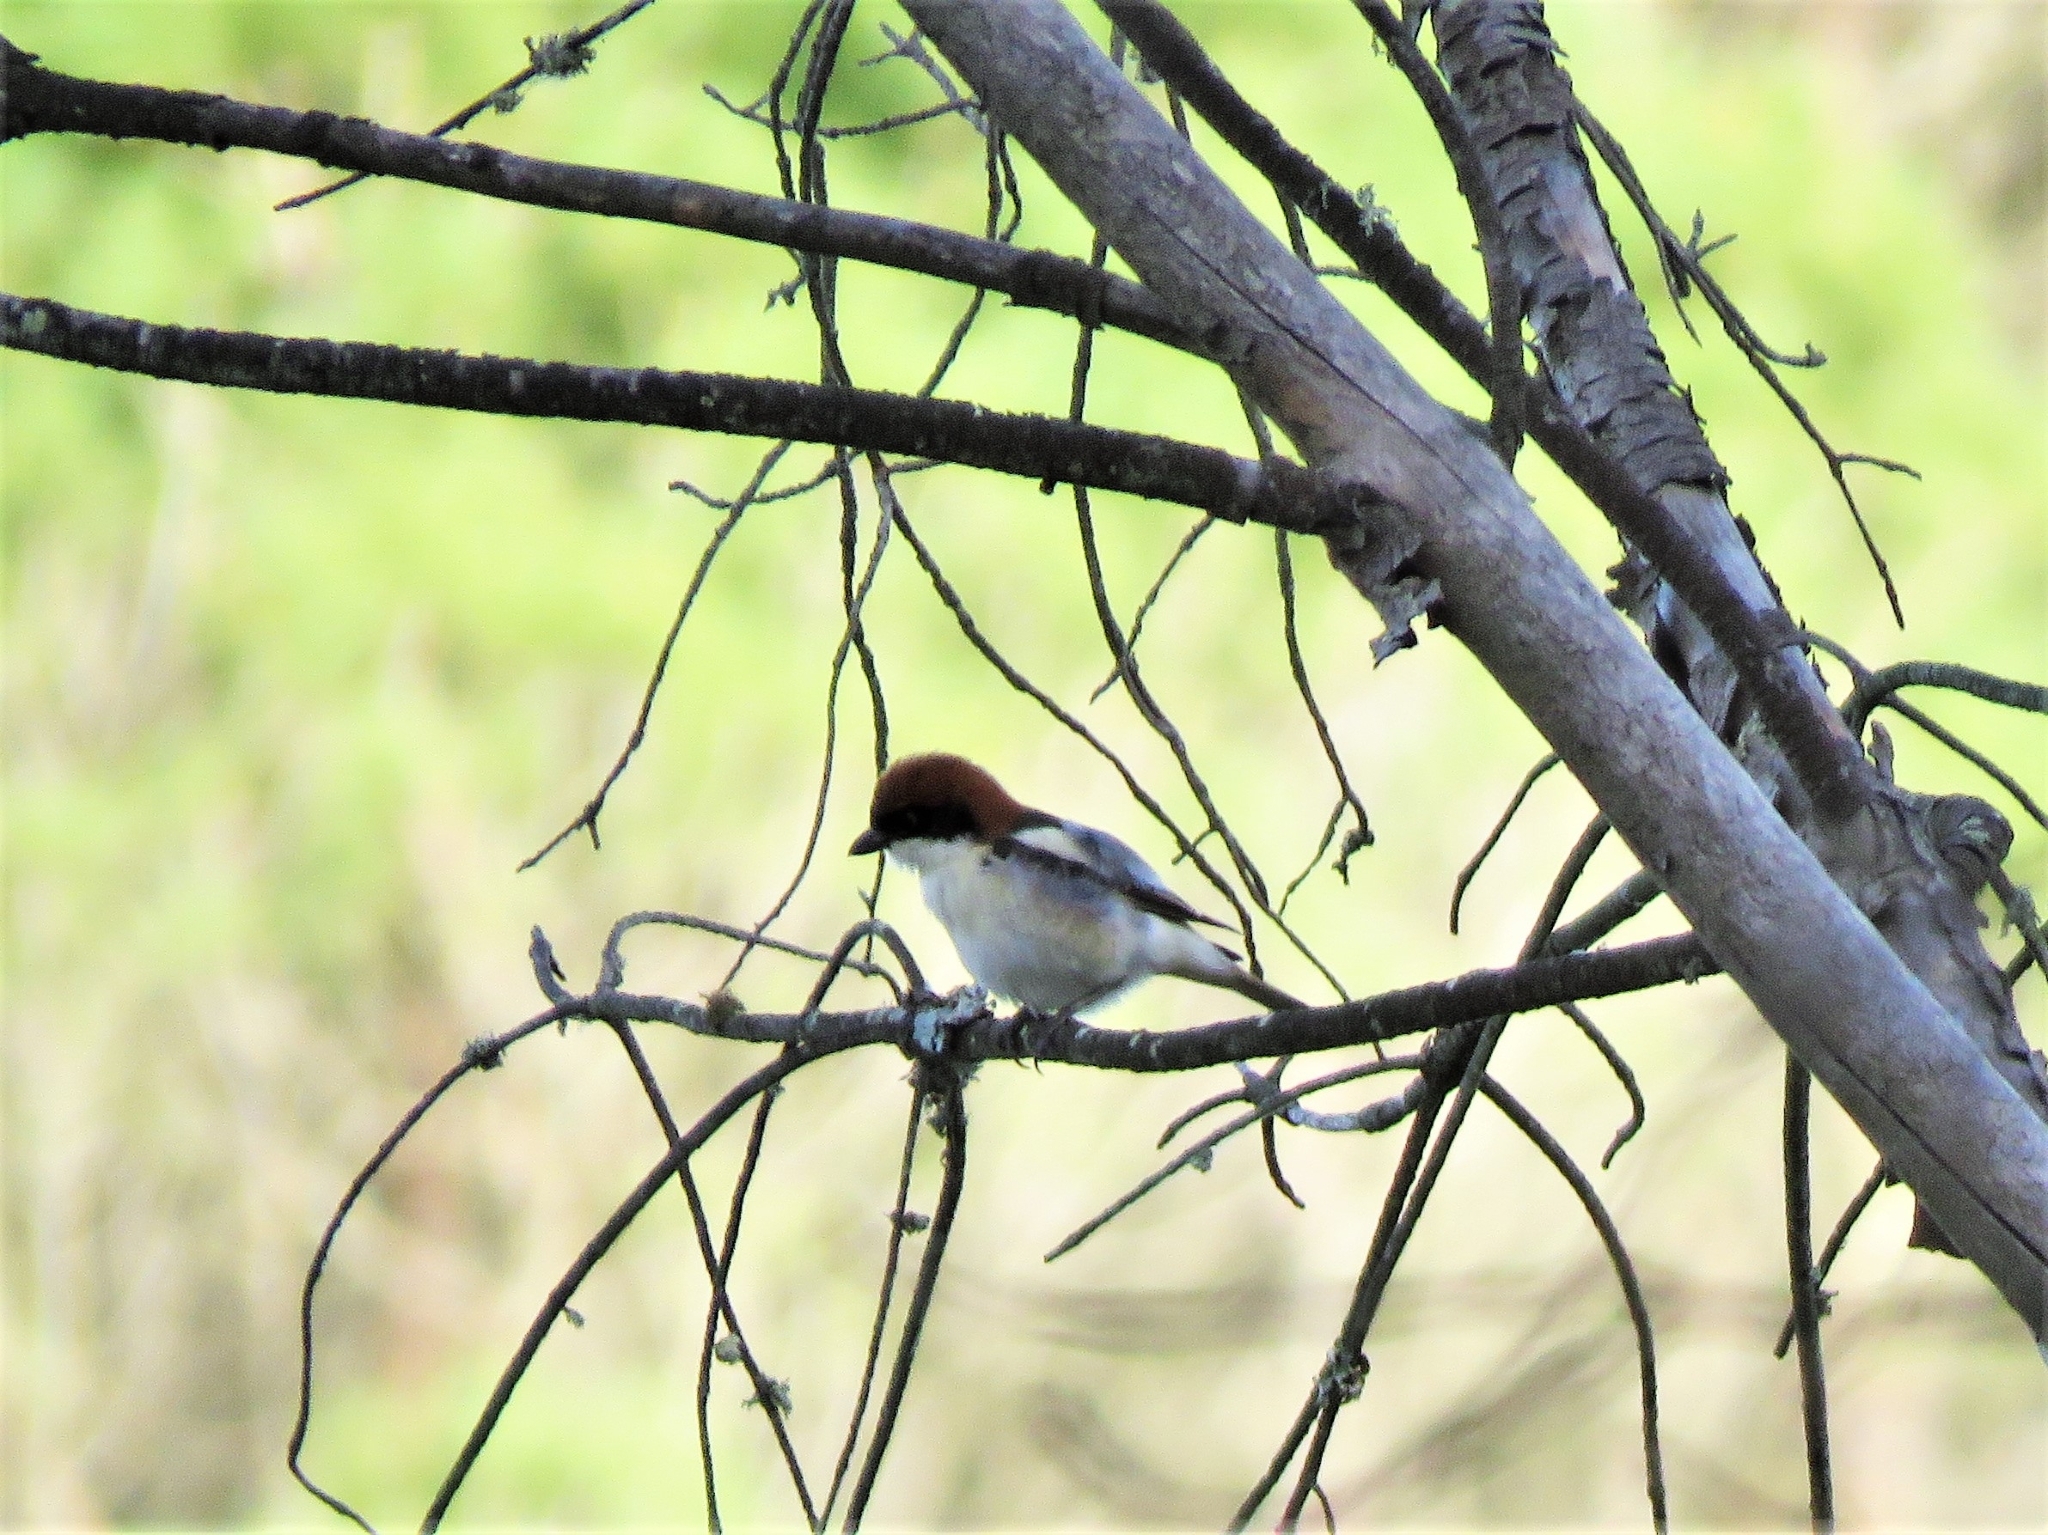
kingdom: Animalia
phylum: Chordata
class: Aves
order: Passeriformes
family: Laniidae
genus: Lanius
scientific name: Lanius senator
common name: Woodchat shrike
